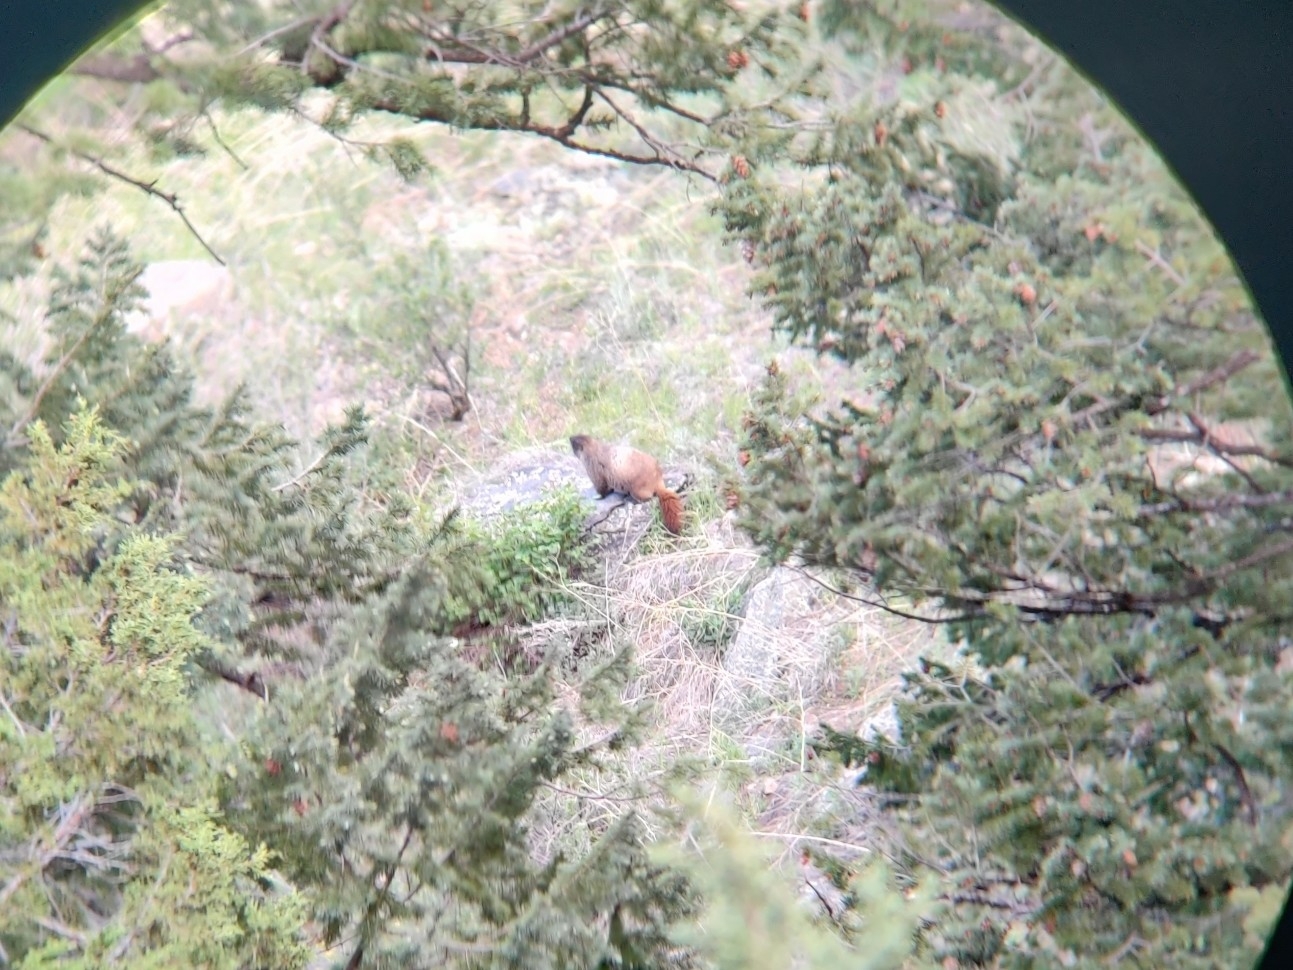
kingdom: Animalia
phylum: Chordata
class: Mammalia
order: Rodentia
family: Sciuridae
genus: Marmota
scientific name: Marmota flaviventris
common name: Yellow-bellied marmot
